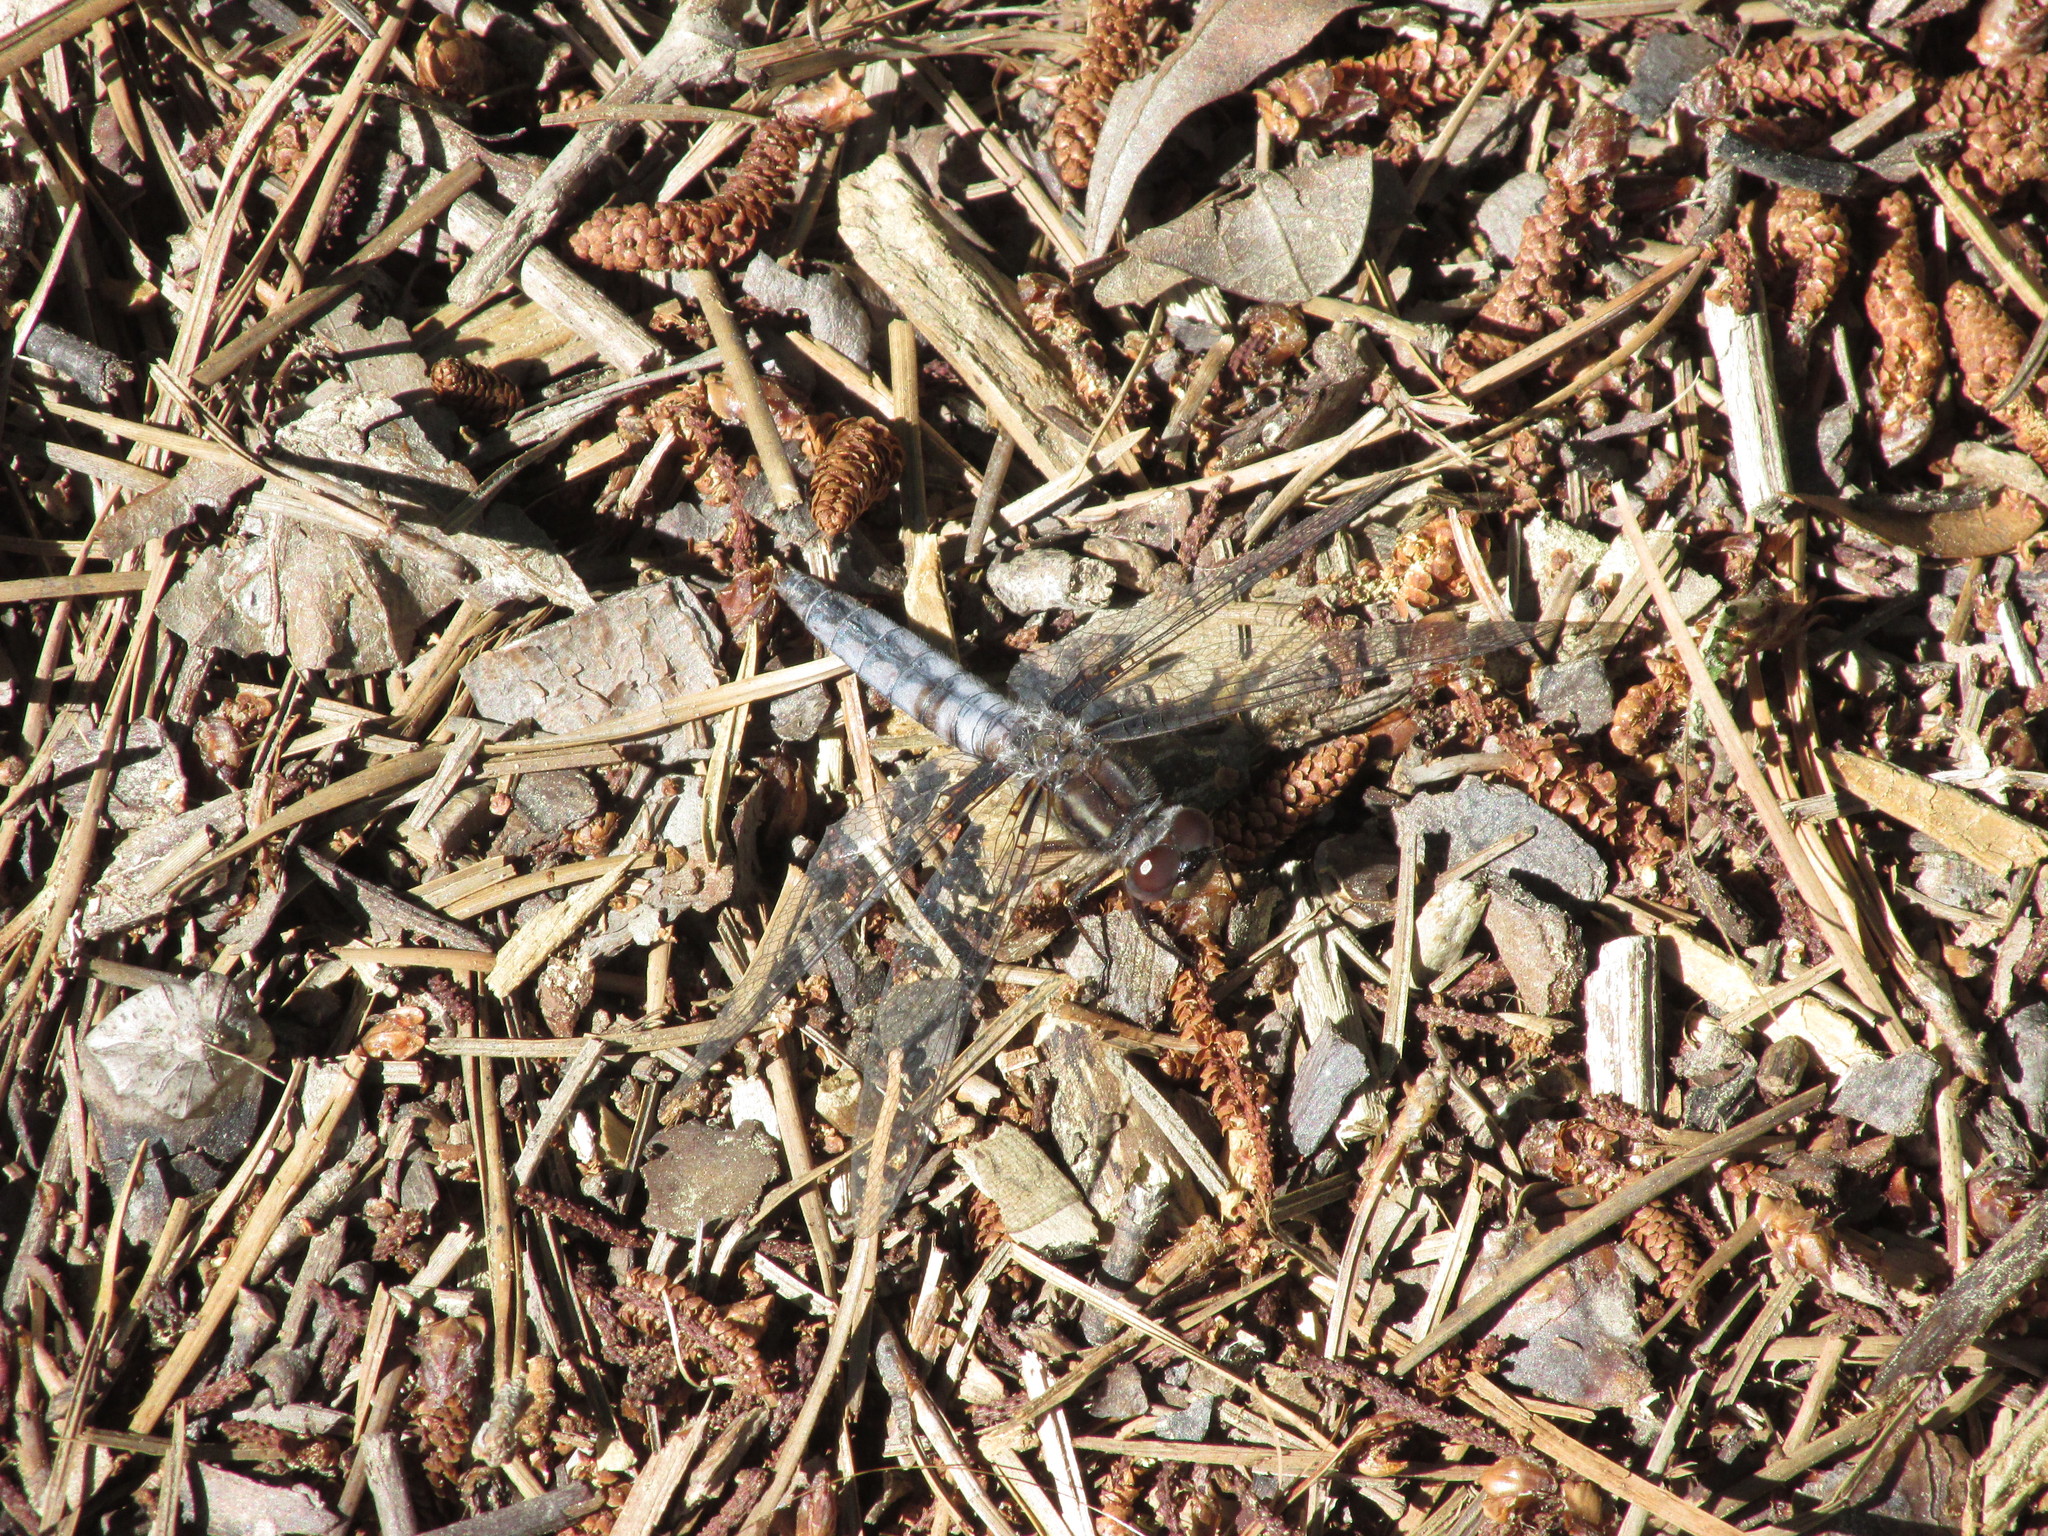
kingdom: Animalia
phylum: Arthropoda
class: Insecta
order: Odonata
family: Libellulidae
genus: Ladona
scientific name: Ladona deplanata
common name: Blue corporal
